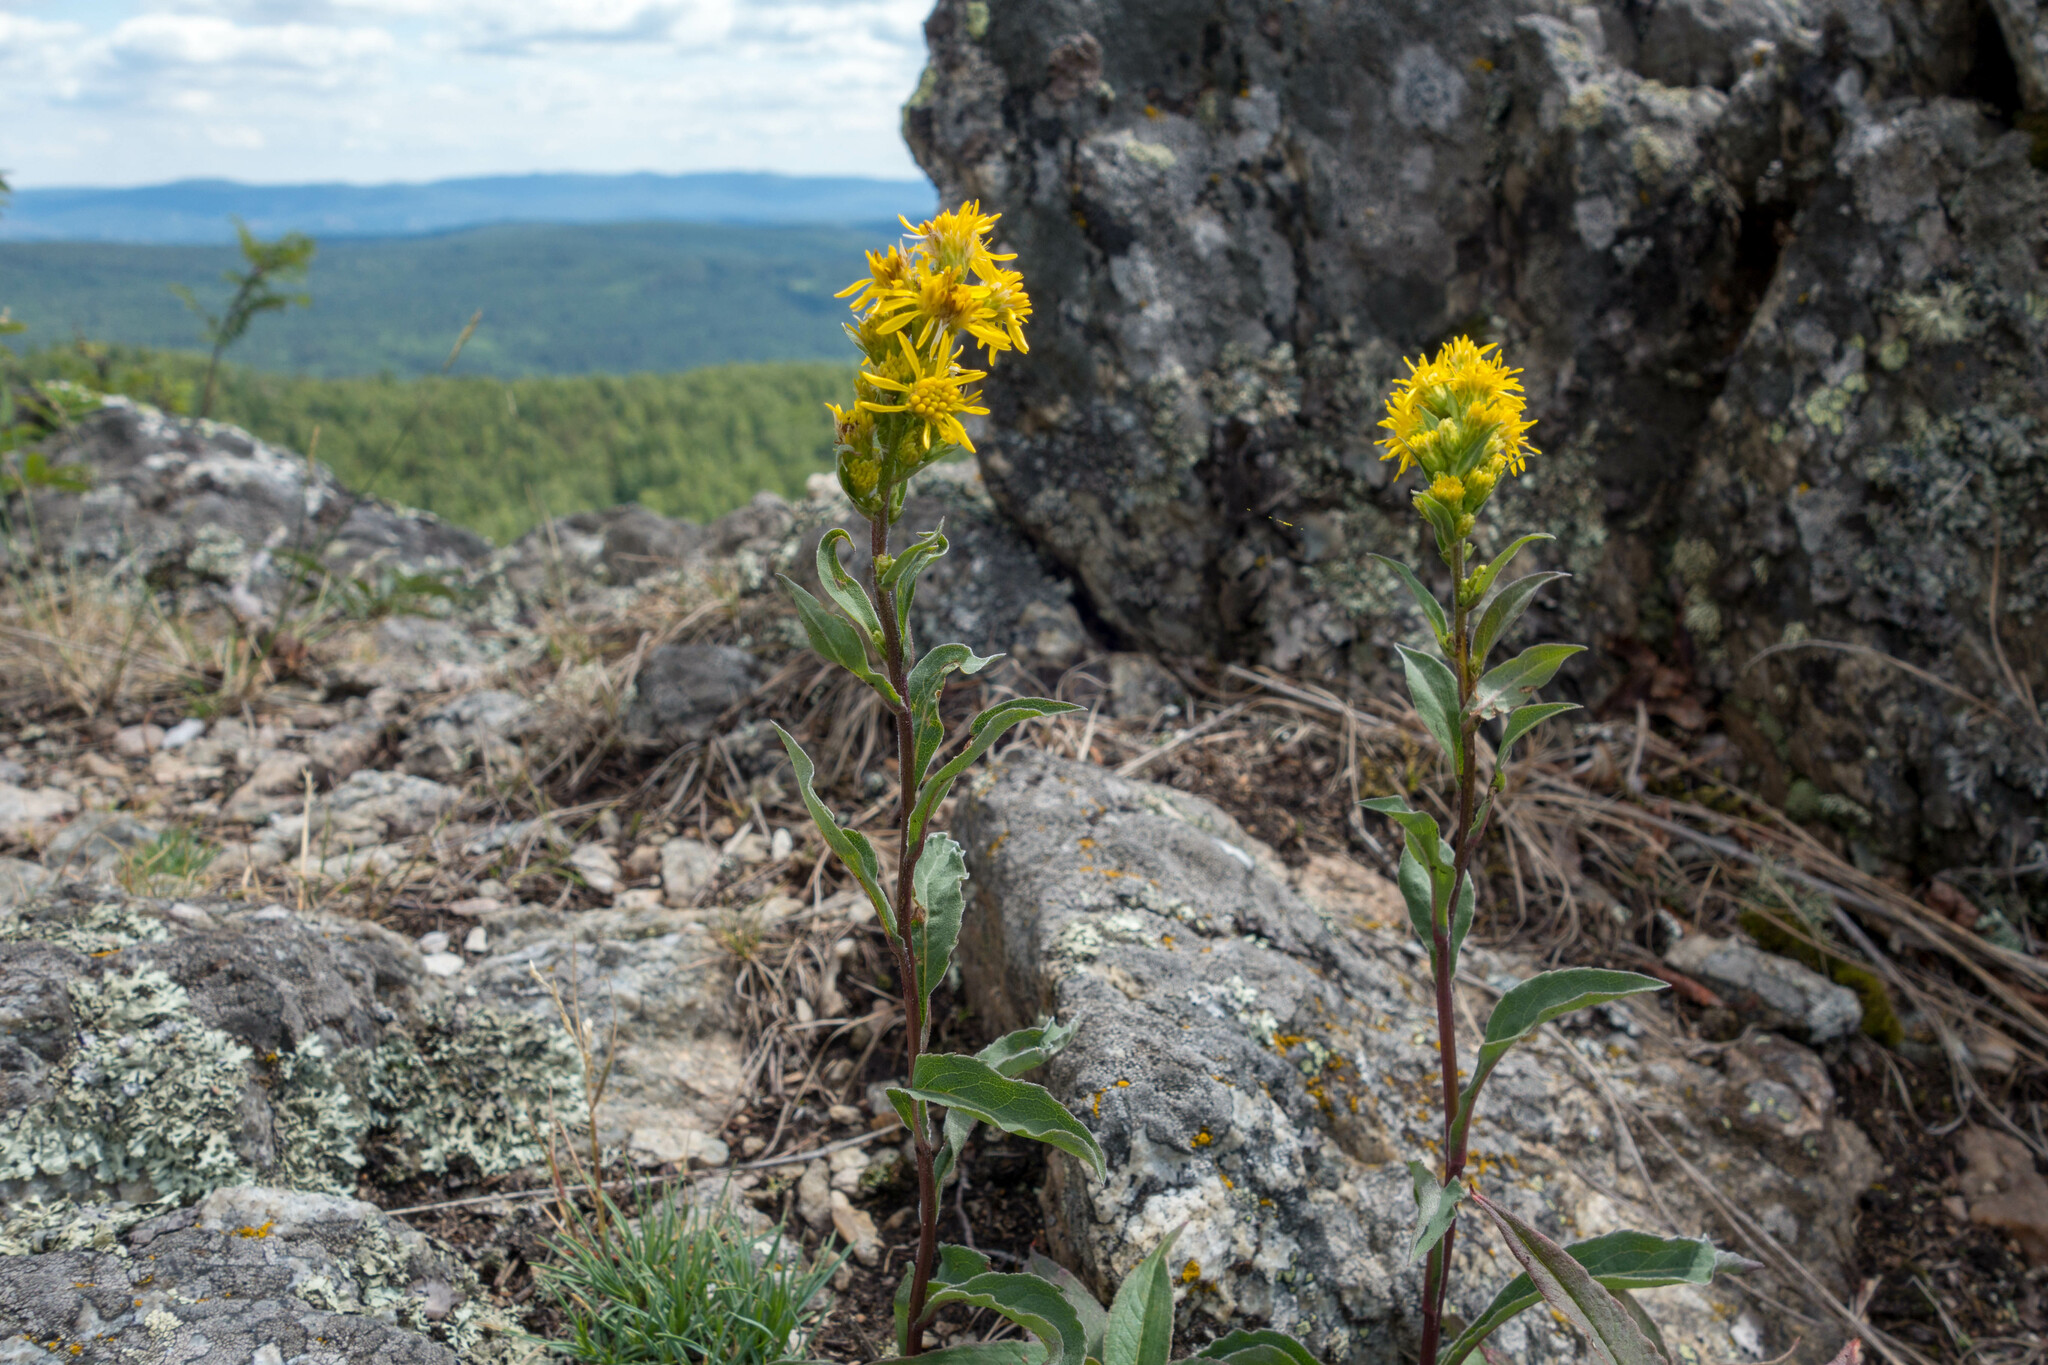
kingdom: Plantae
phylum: Tracheophyta
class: Magnoliopsida
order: Asterales
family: Asteraceae
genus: Solidago
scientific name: Solidago virgaurea
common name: Goldenrod
